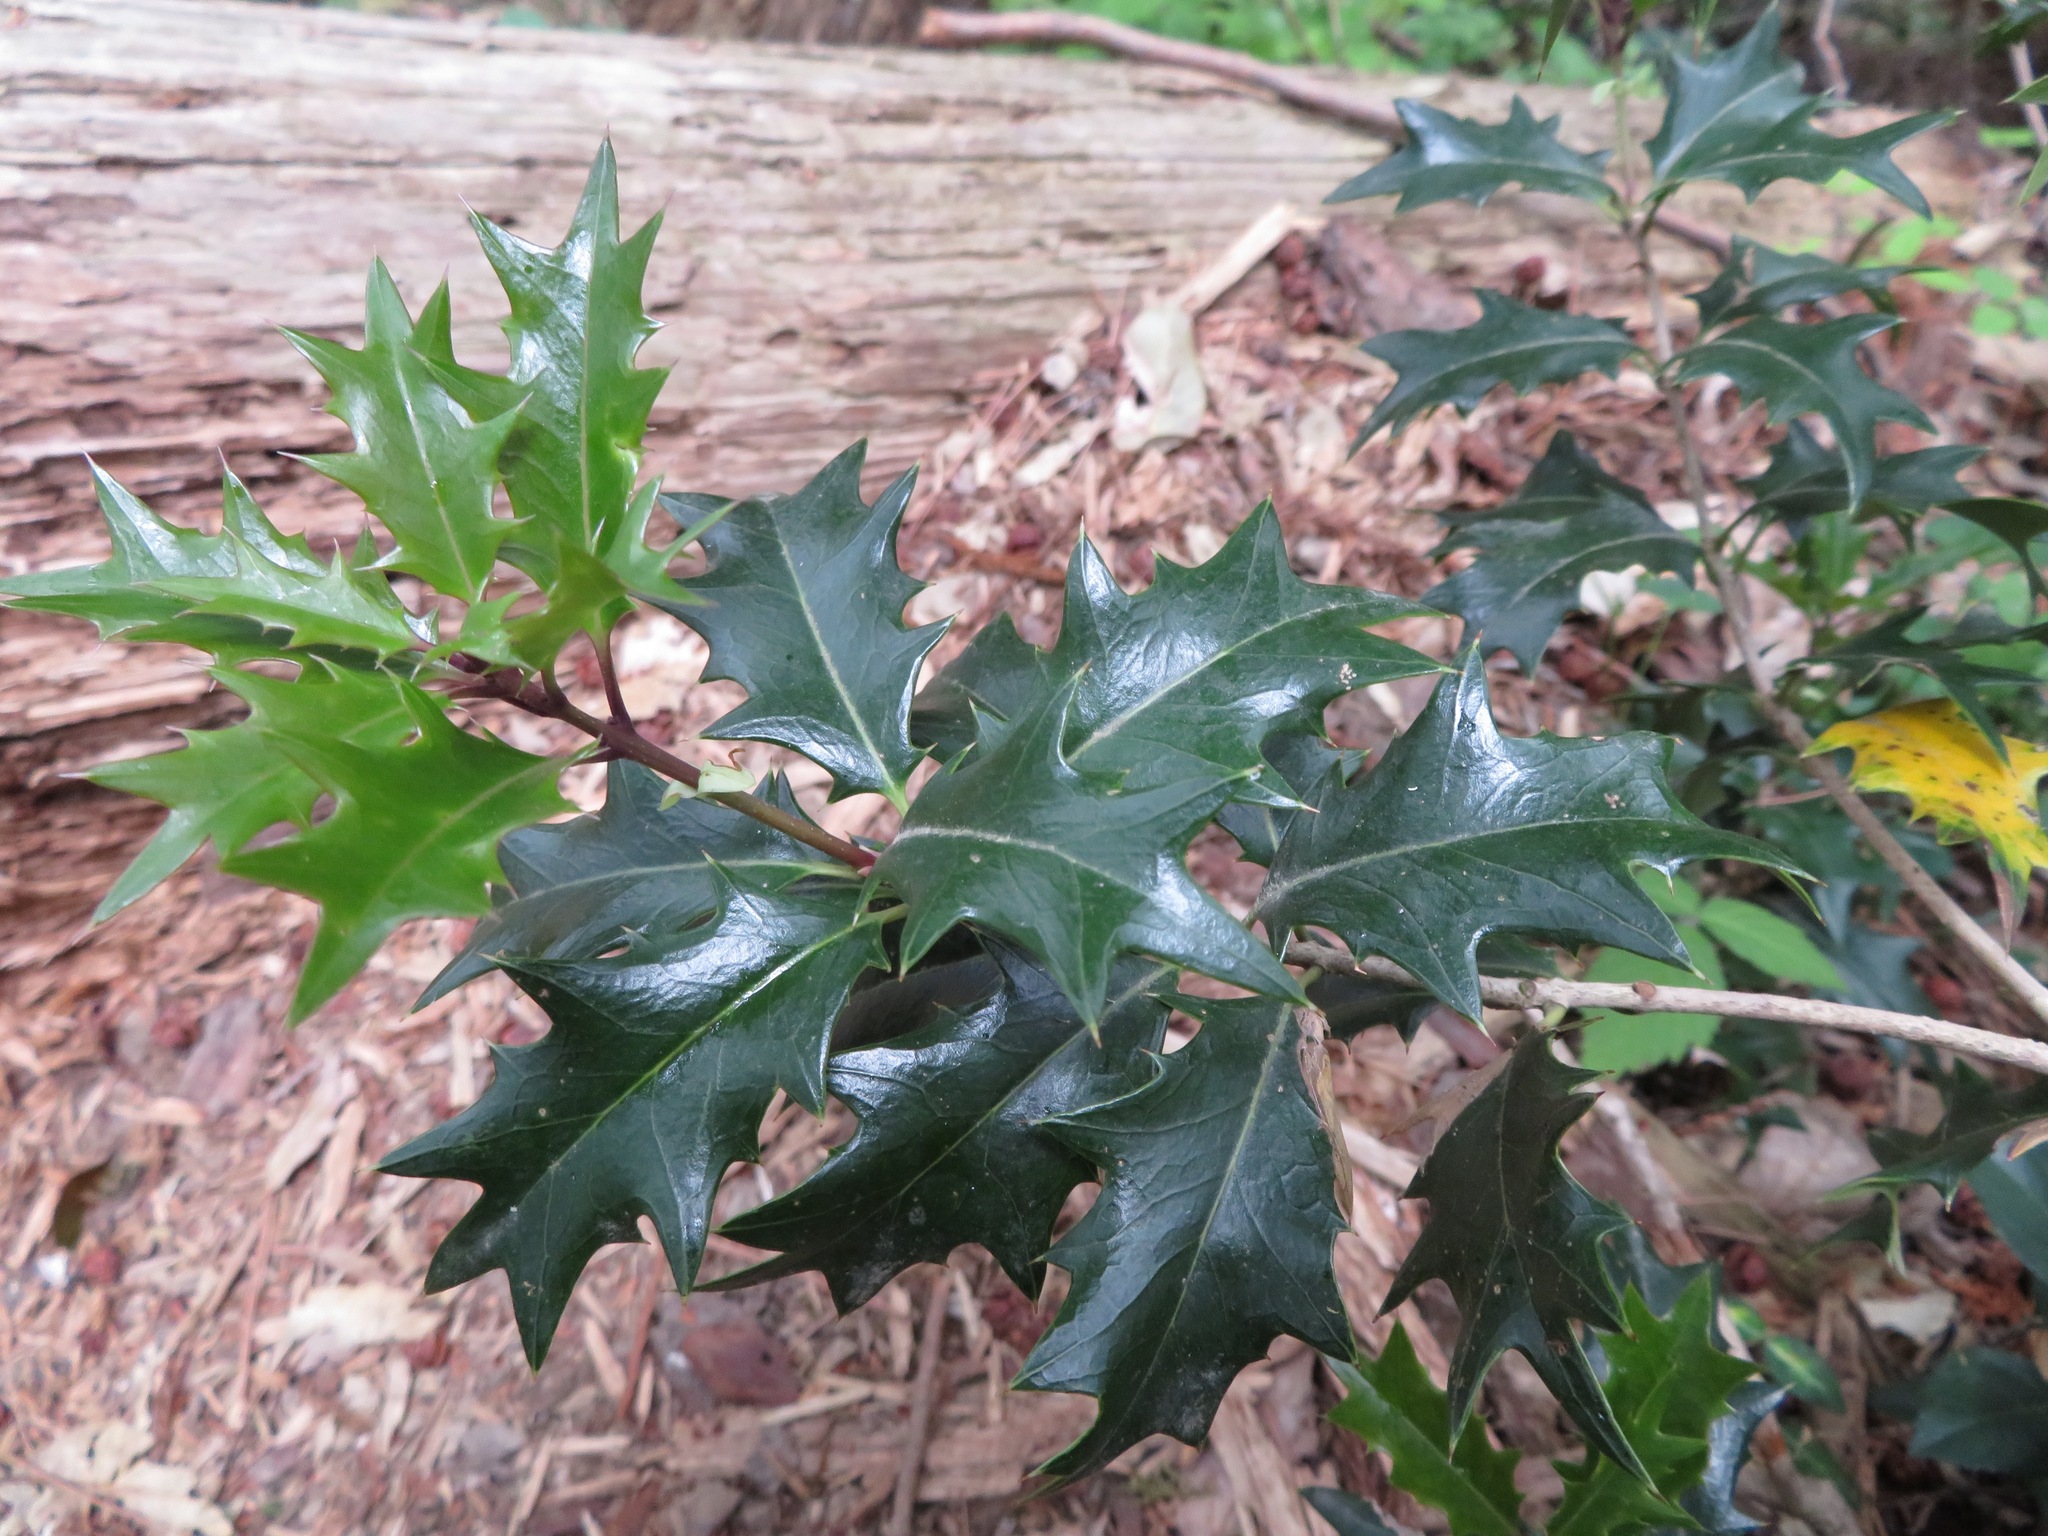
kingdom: Plantae
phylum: Tracheophyta
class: Magnoliopsida
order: Lamiales
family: Oleaceae
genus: Osmanthus
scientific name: Osmanthus heterophyllus
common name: Holly osmanthus
